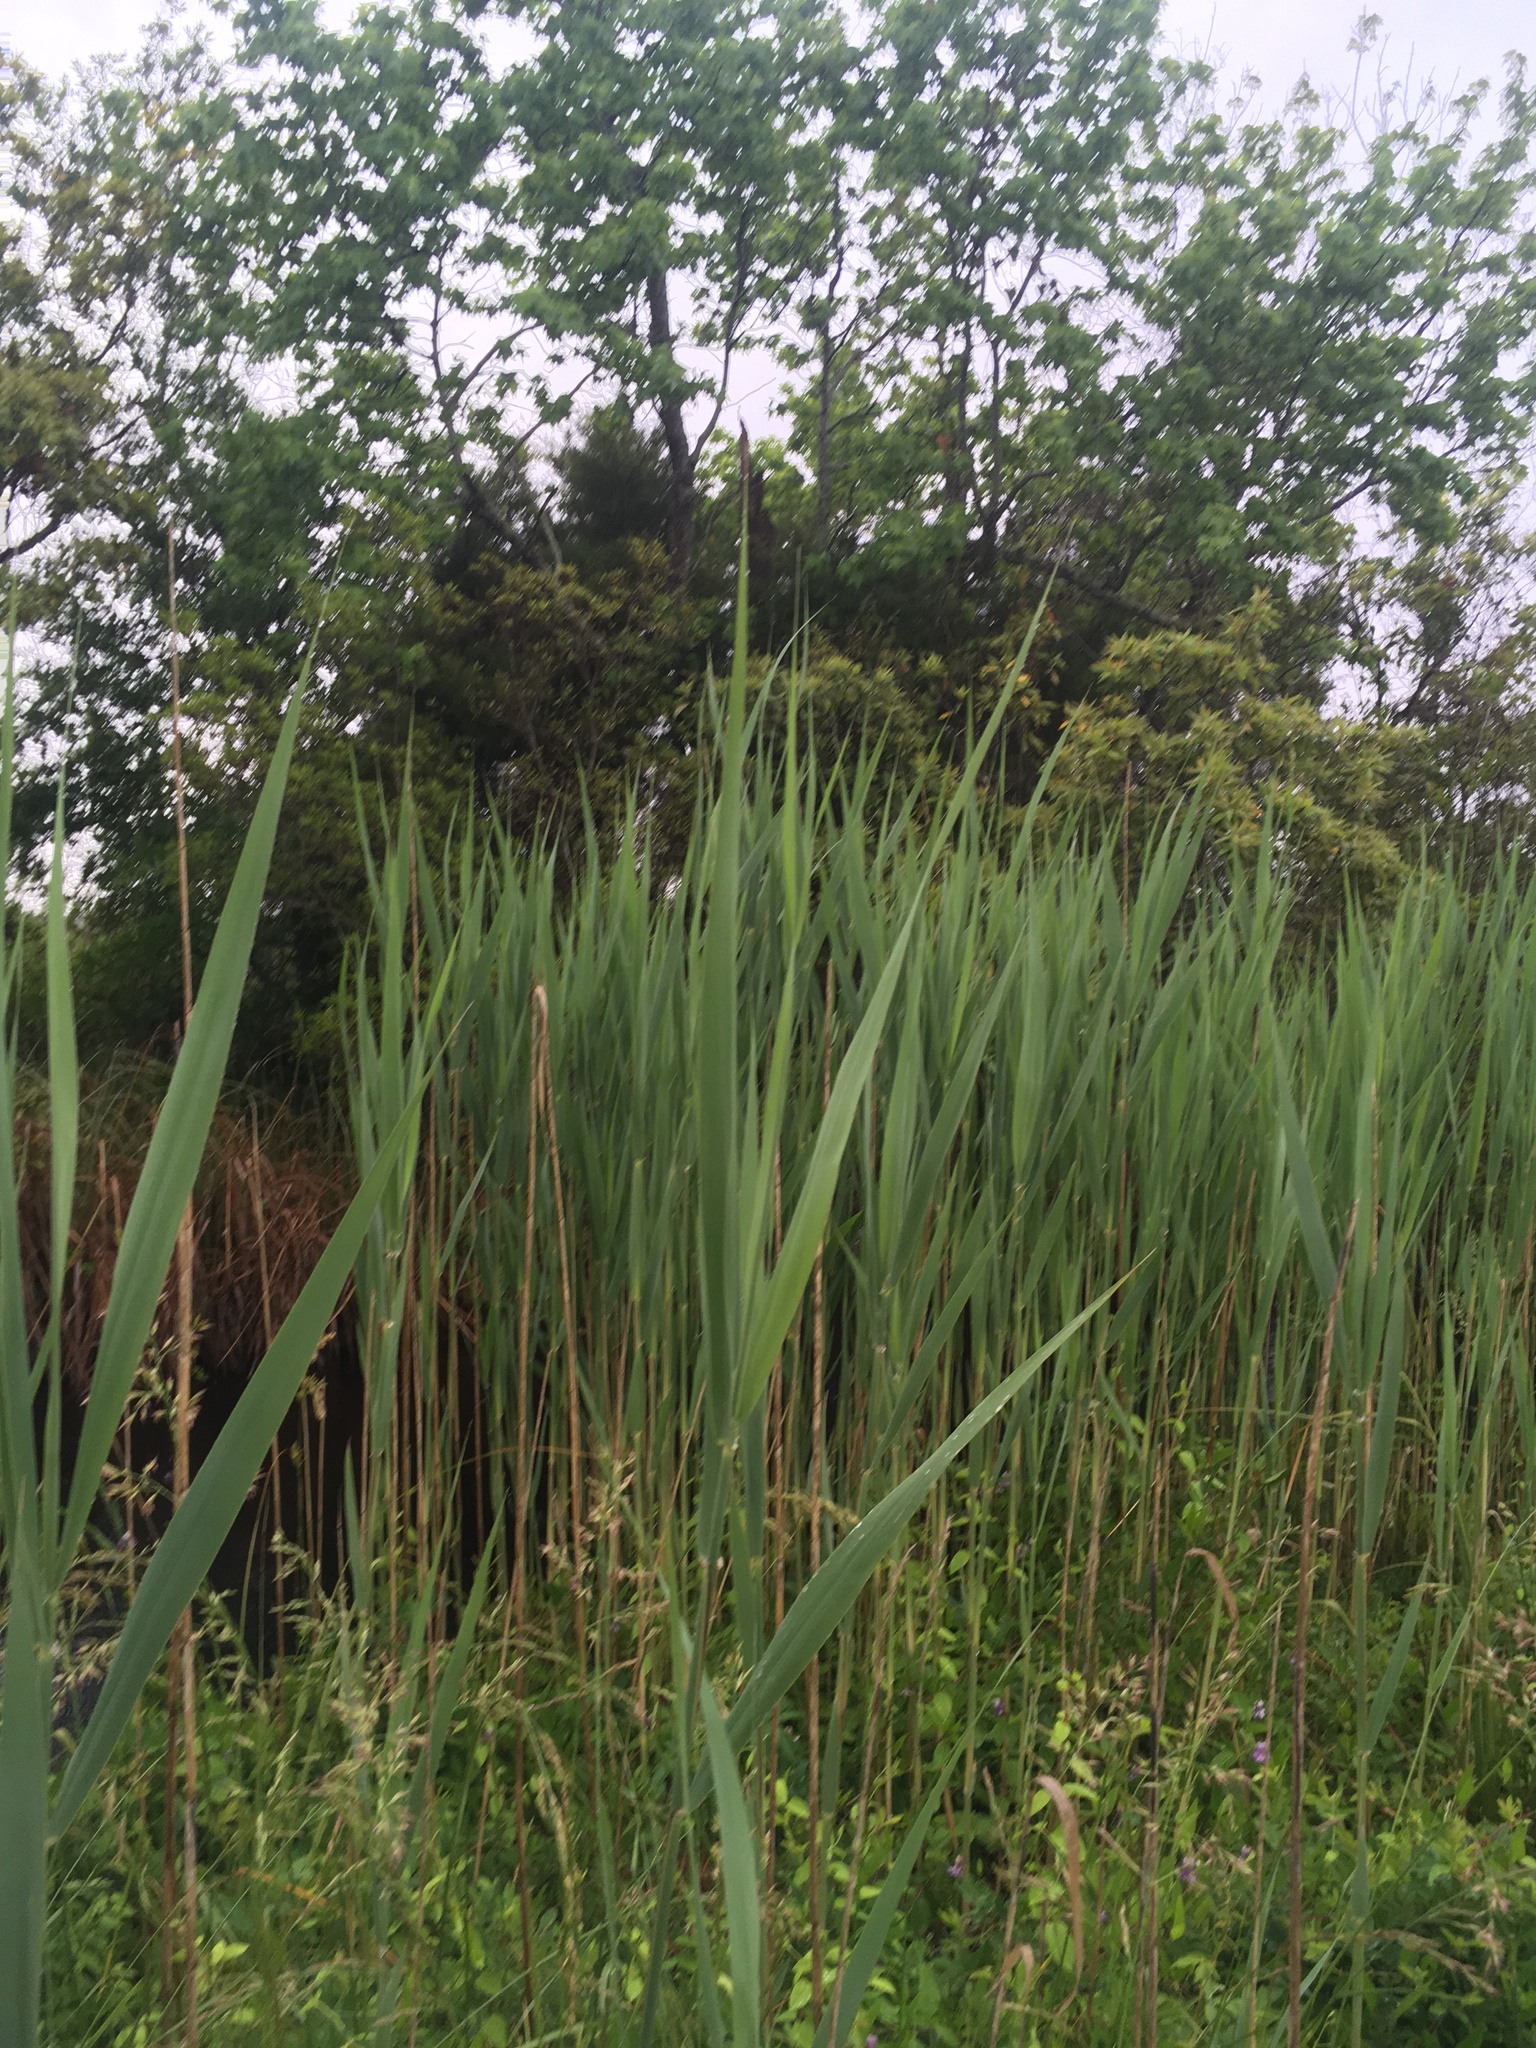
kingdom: Plantae
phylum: Tracheophyta
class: Liliopsida
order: Poales
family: Poaceae
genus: Phragmites
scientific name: Phragmites australis
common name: Common reed
